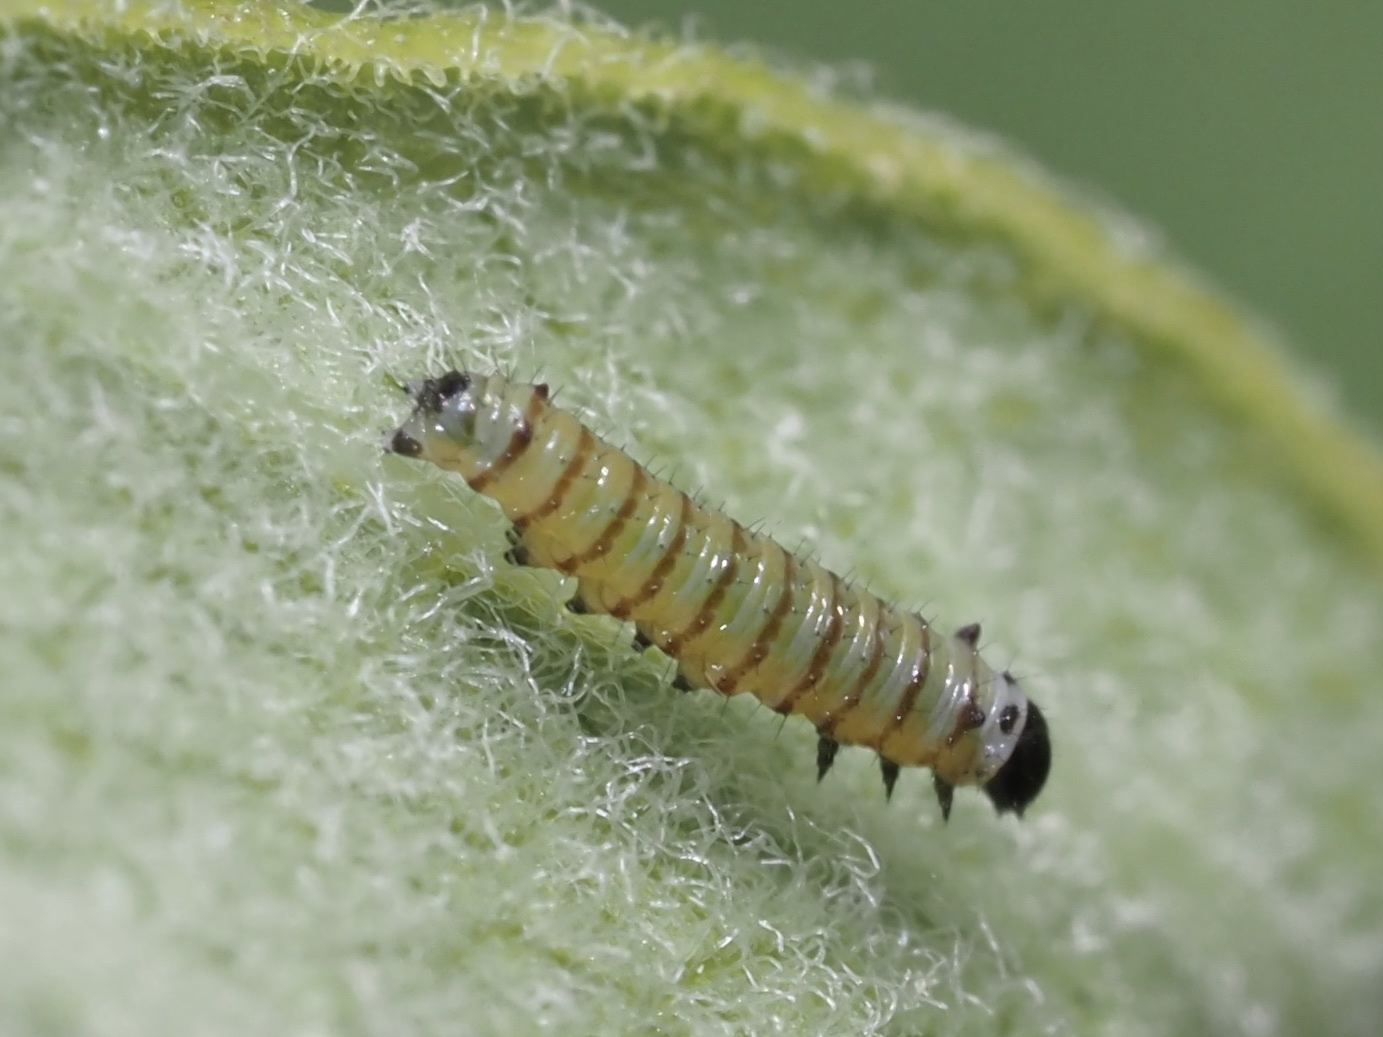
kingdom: Animalia
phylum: Arthropoda
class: Insecta
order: Lepidoptera
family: Nymphalidae
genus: Danaus
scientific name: Danaus plexippus
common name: Monarch
